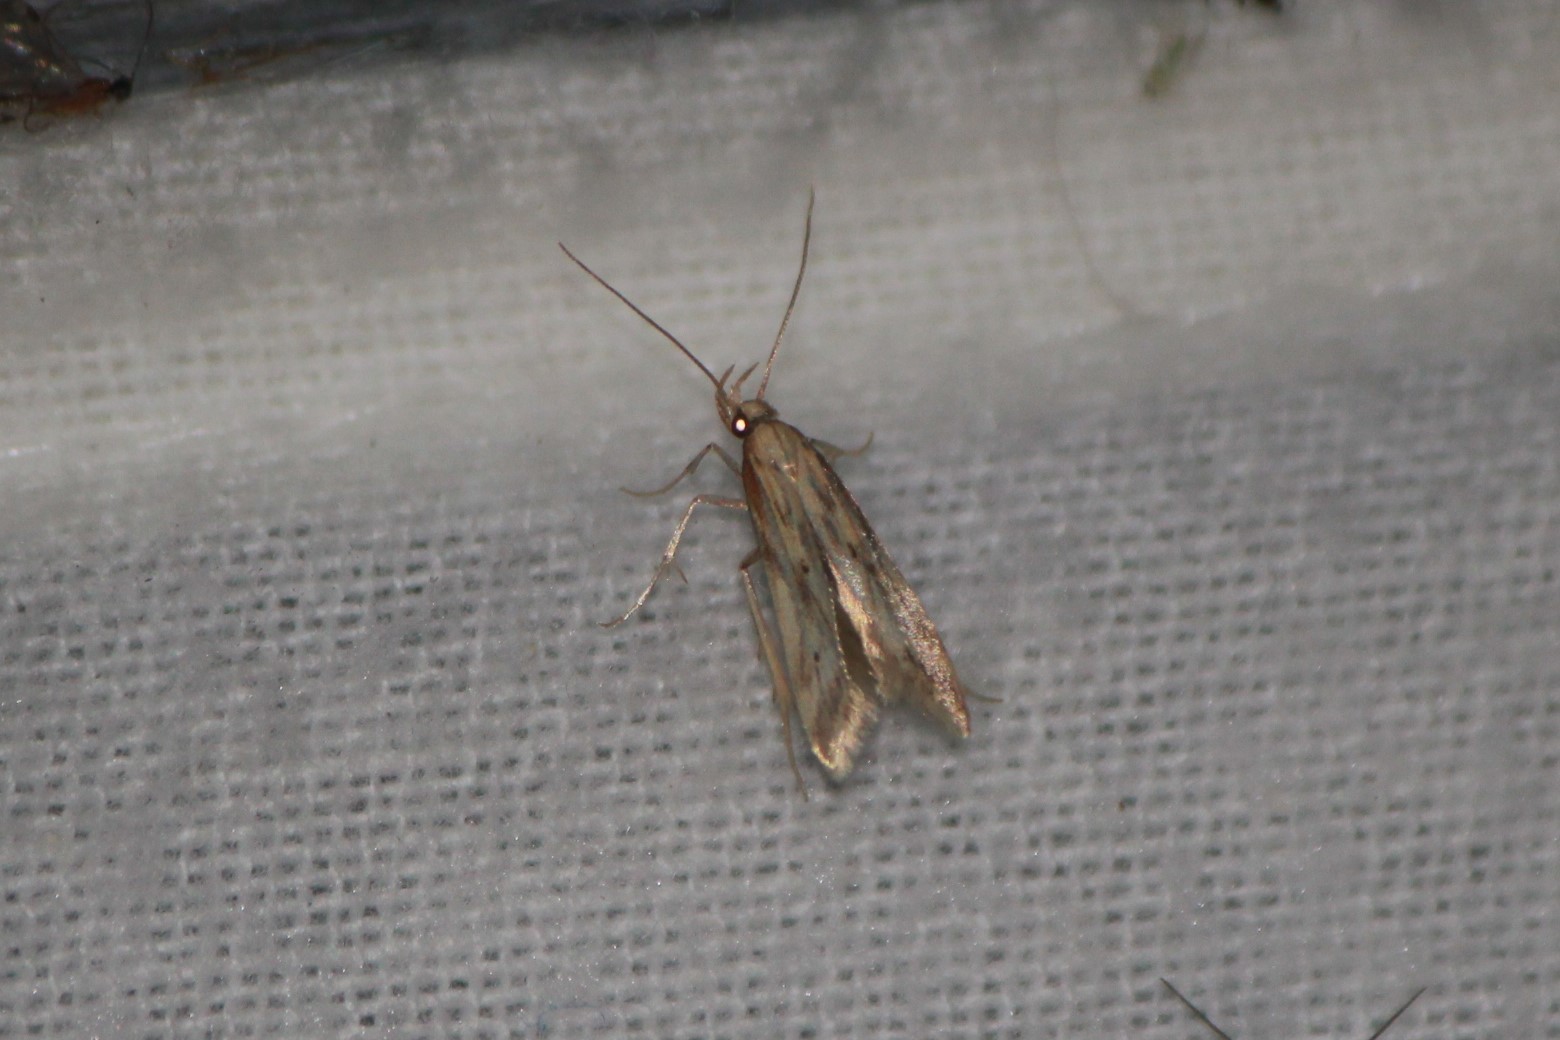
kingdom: Animalia
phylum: Arthropoda
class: Insecta
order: Lepidoptera
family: Gelechiidae
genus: Metzneria
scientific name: Metzneria lappella
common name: Burdock neb
